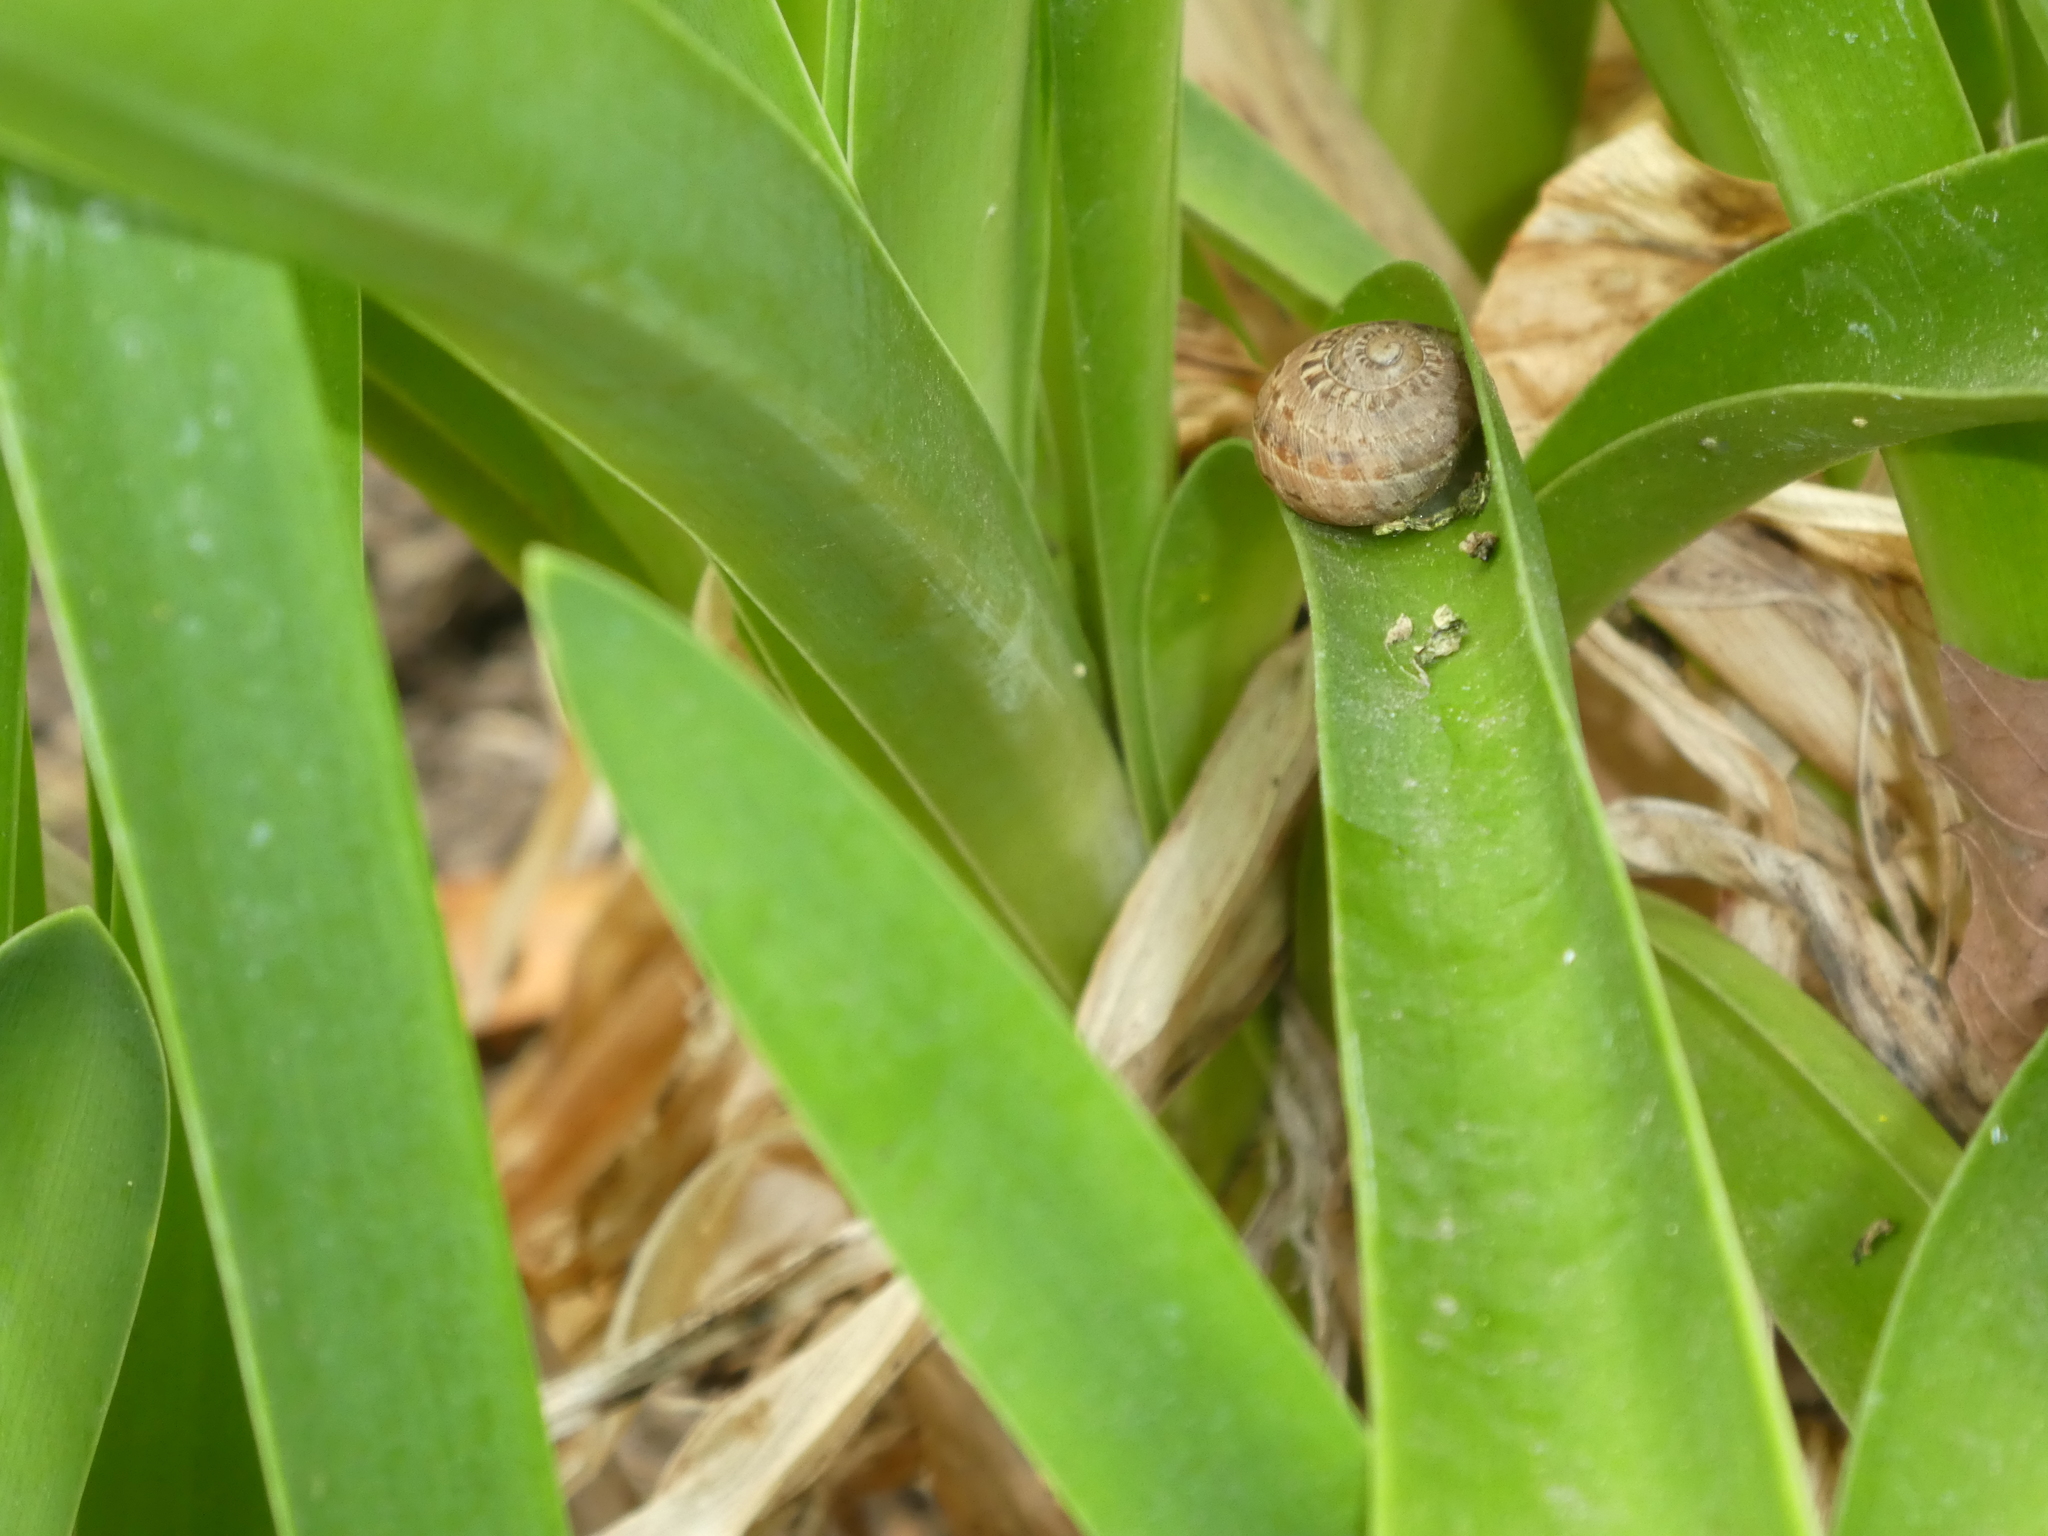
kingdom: Animalia
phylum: Mollusca
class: Gastropoda
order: Stylommatophora
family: Helicidae
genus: Cornu
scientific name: Cornu aspersum
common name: Brown garden snail
